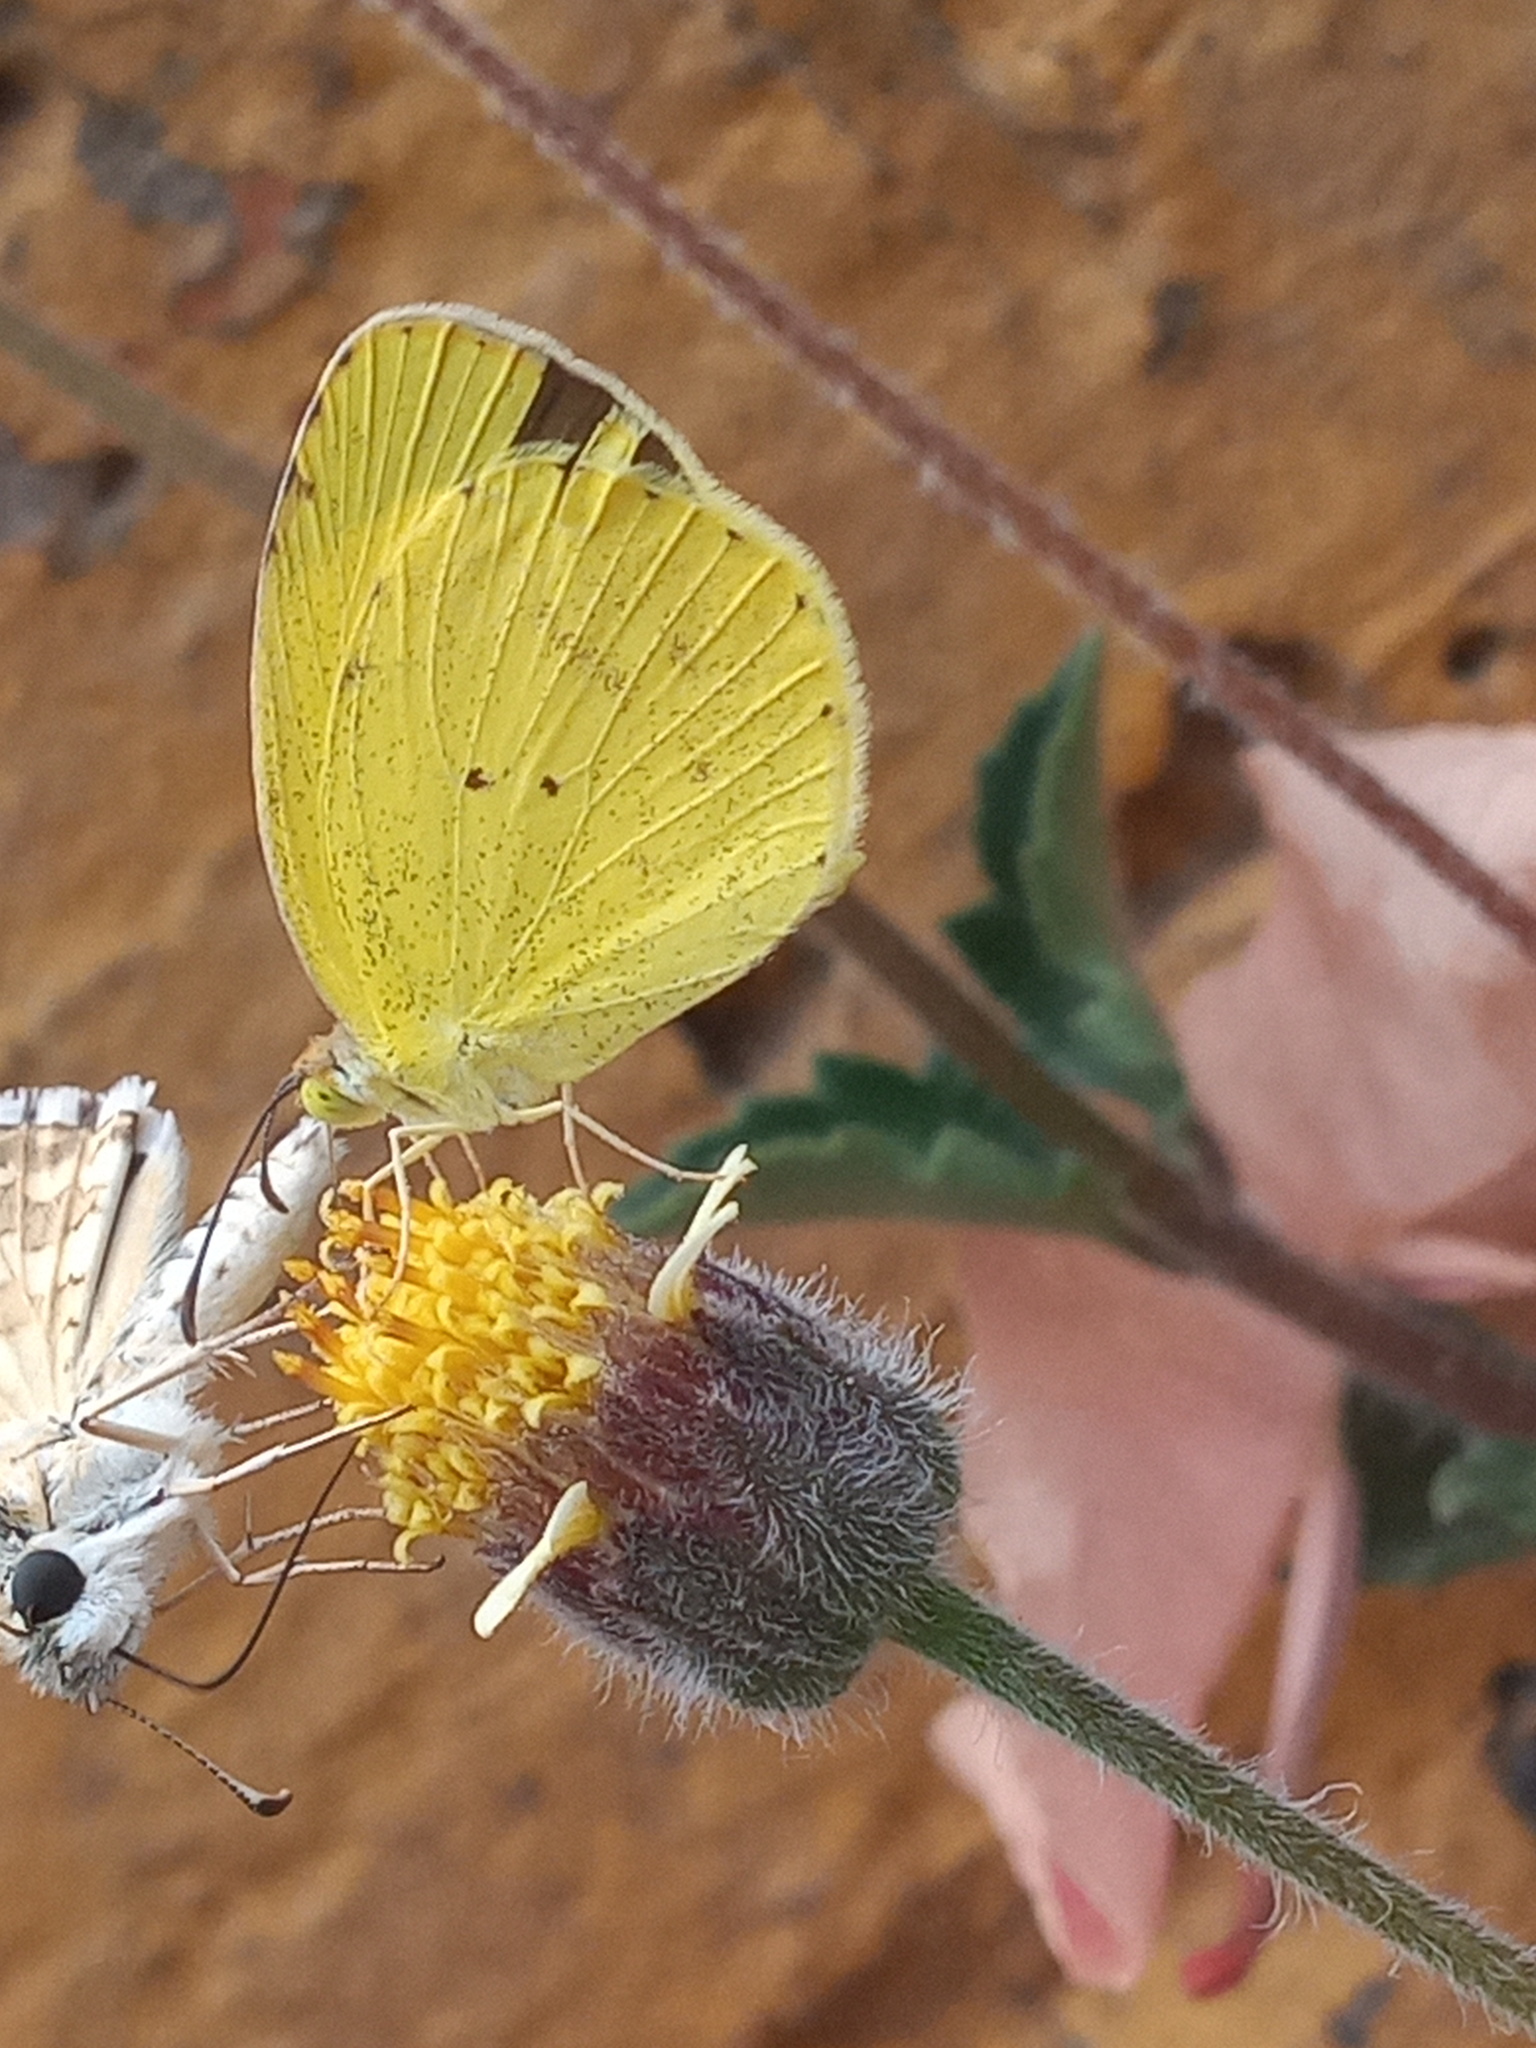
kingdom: Animalia
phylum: Arthropoda
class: Insecta
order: Lepidoptera
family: Pieridae
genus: Pyrisitia
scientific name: Pyrisitia nise
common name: Mimosa yellow
